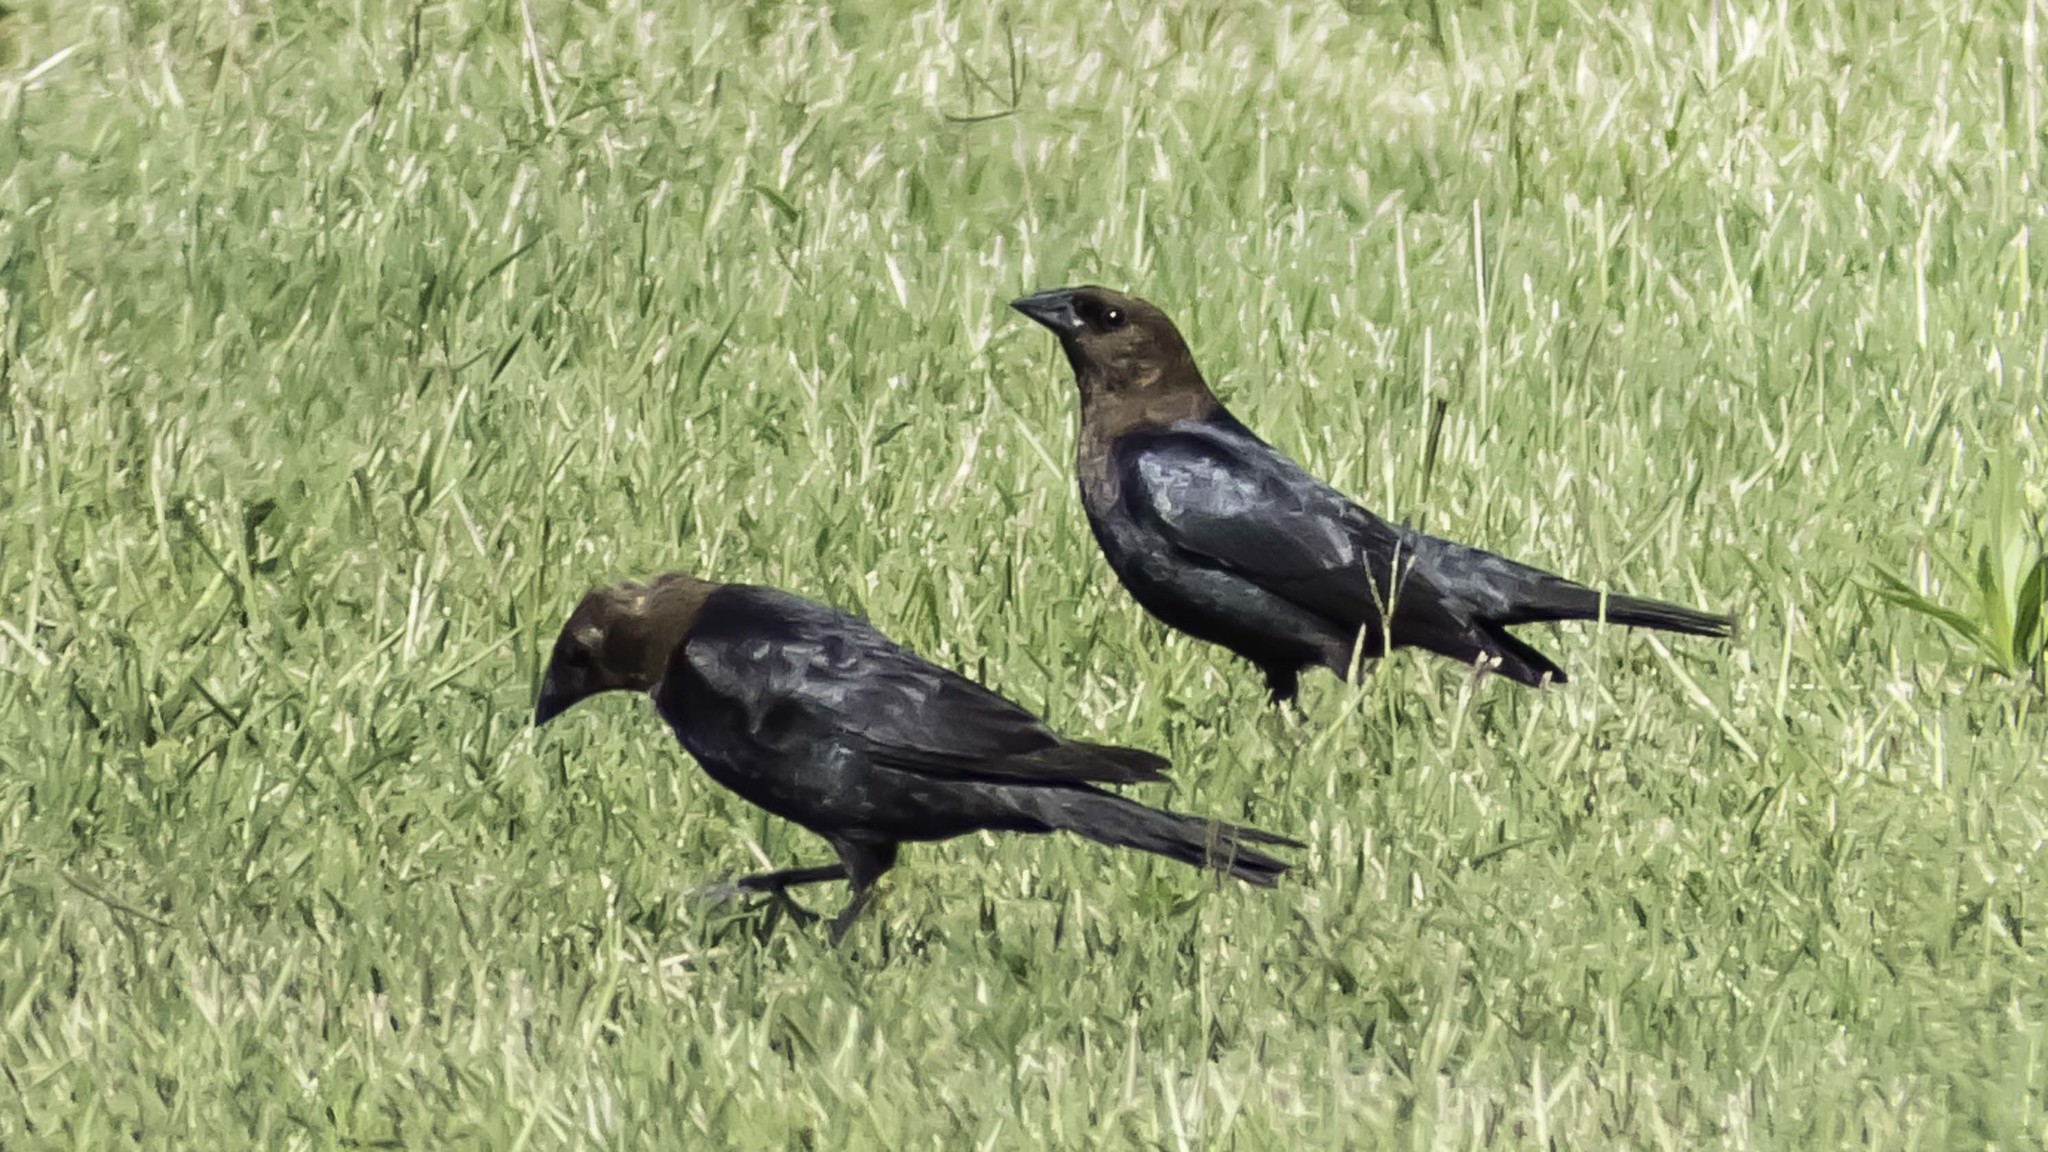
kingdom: Animalia
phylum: Chordata
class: Aves
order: Passeriformes
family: Icteridae
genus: Molothrus
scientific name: Molothrus ater
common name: Brown-headed cowbird
